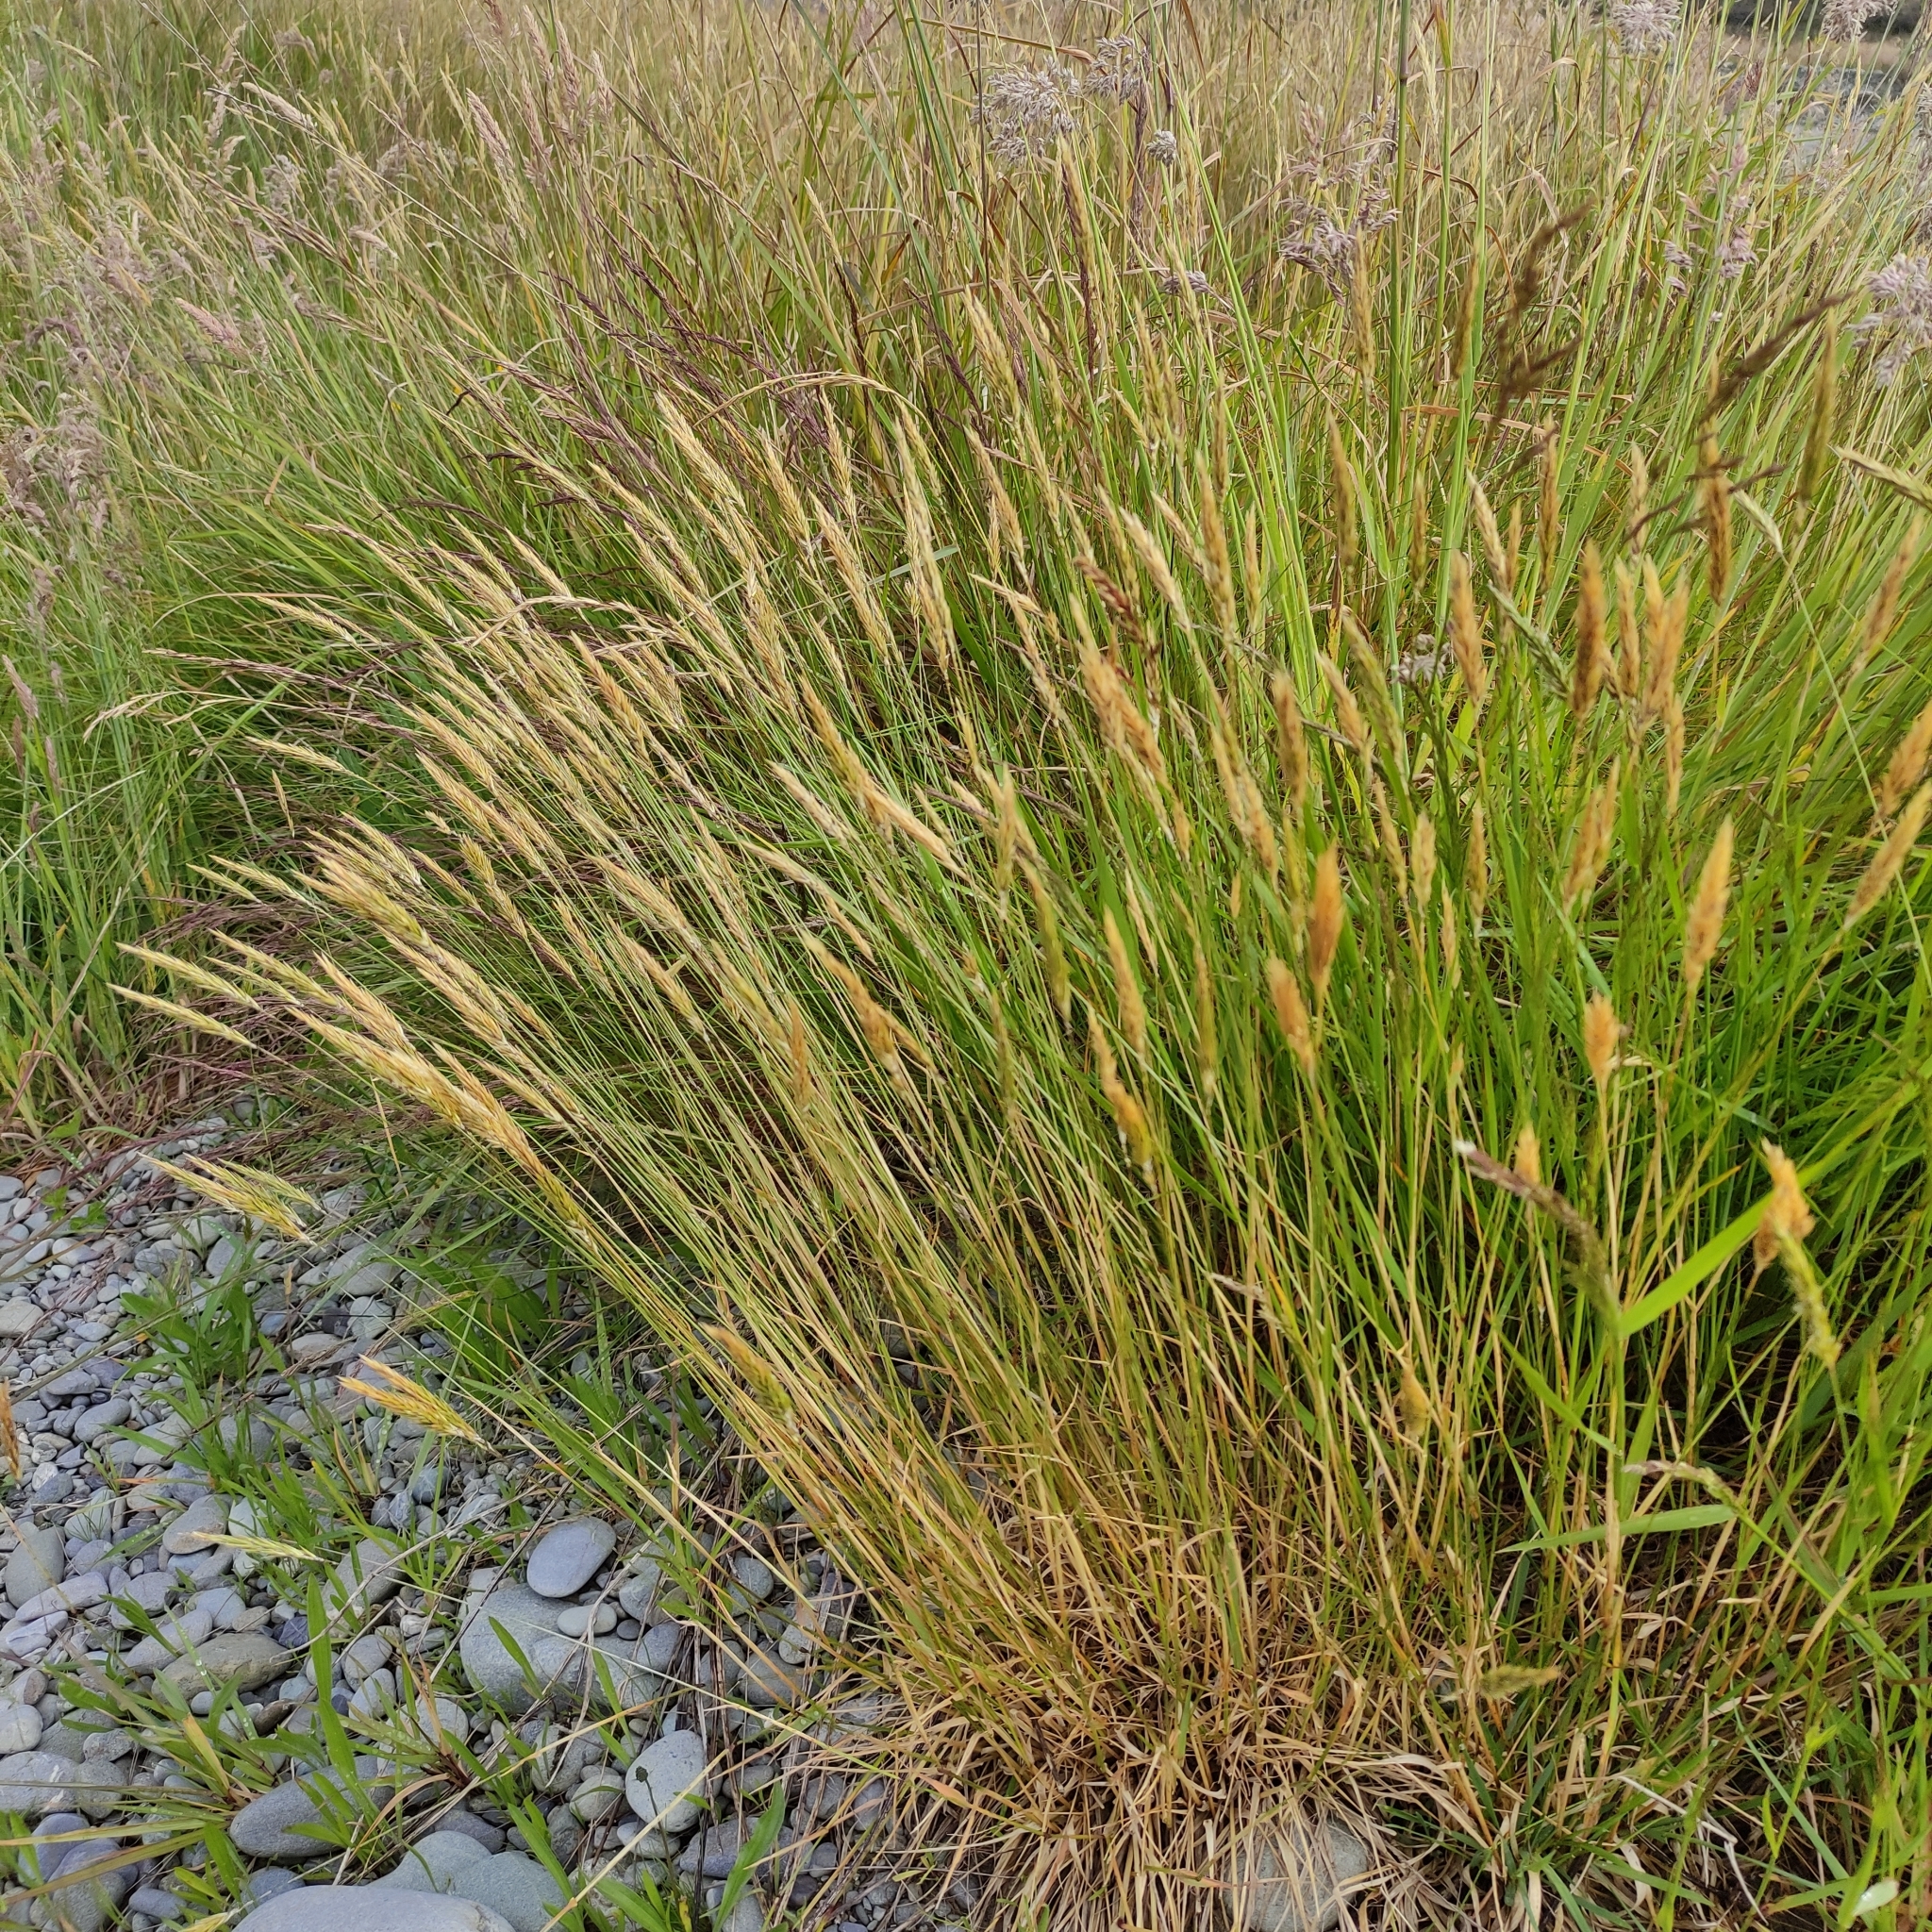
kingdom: Plantae
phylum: Tracheophyta
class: Liliopsida
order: Poales
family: Poaceae
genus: Anthoxanthum
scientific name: Anthoxanthum odoratum
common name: Sweet vernalgrass
